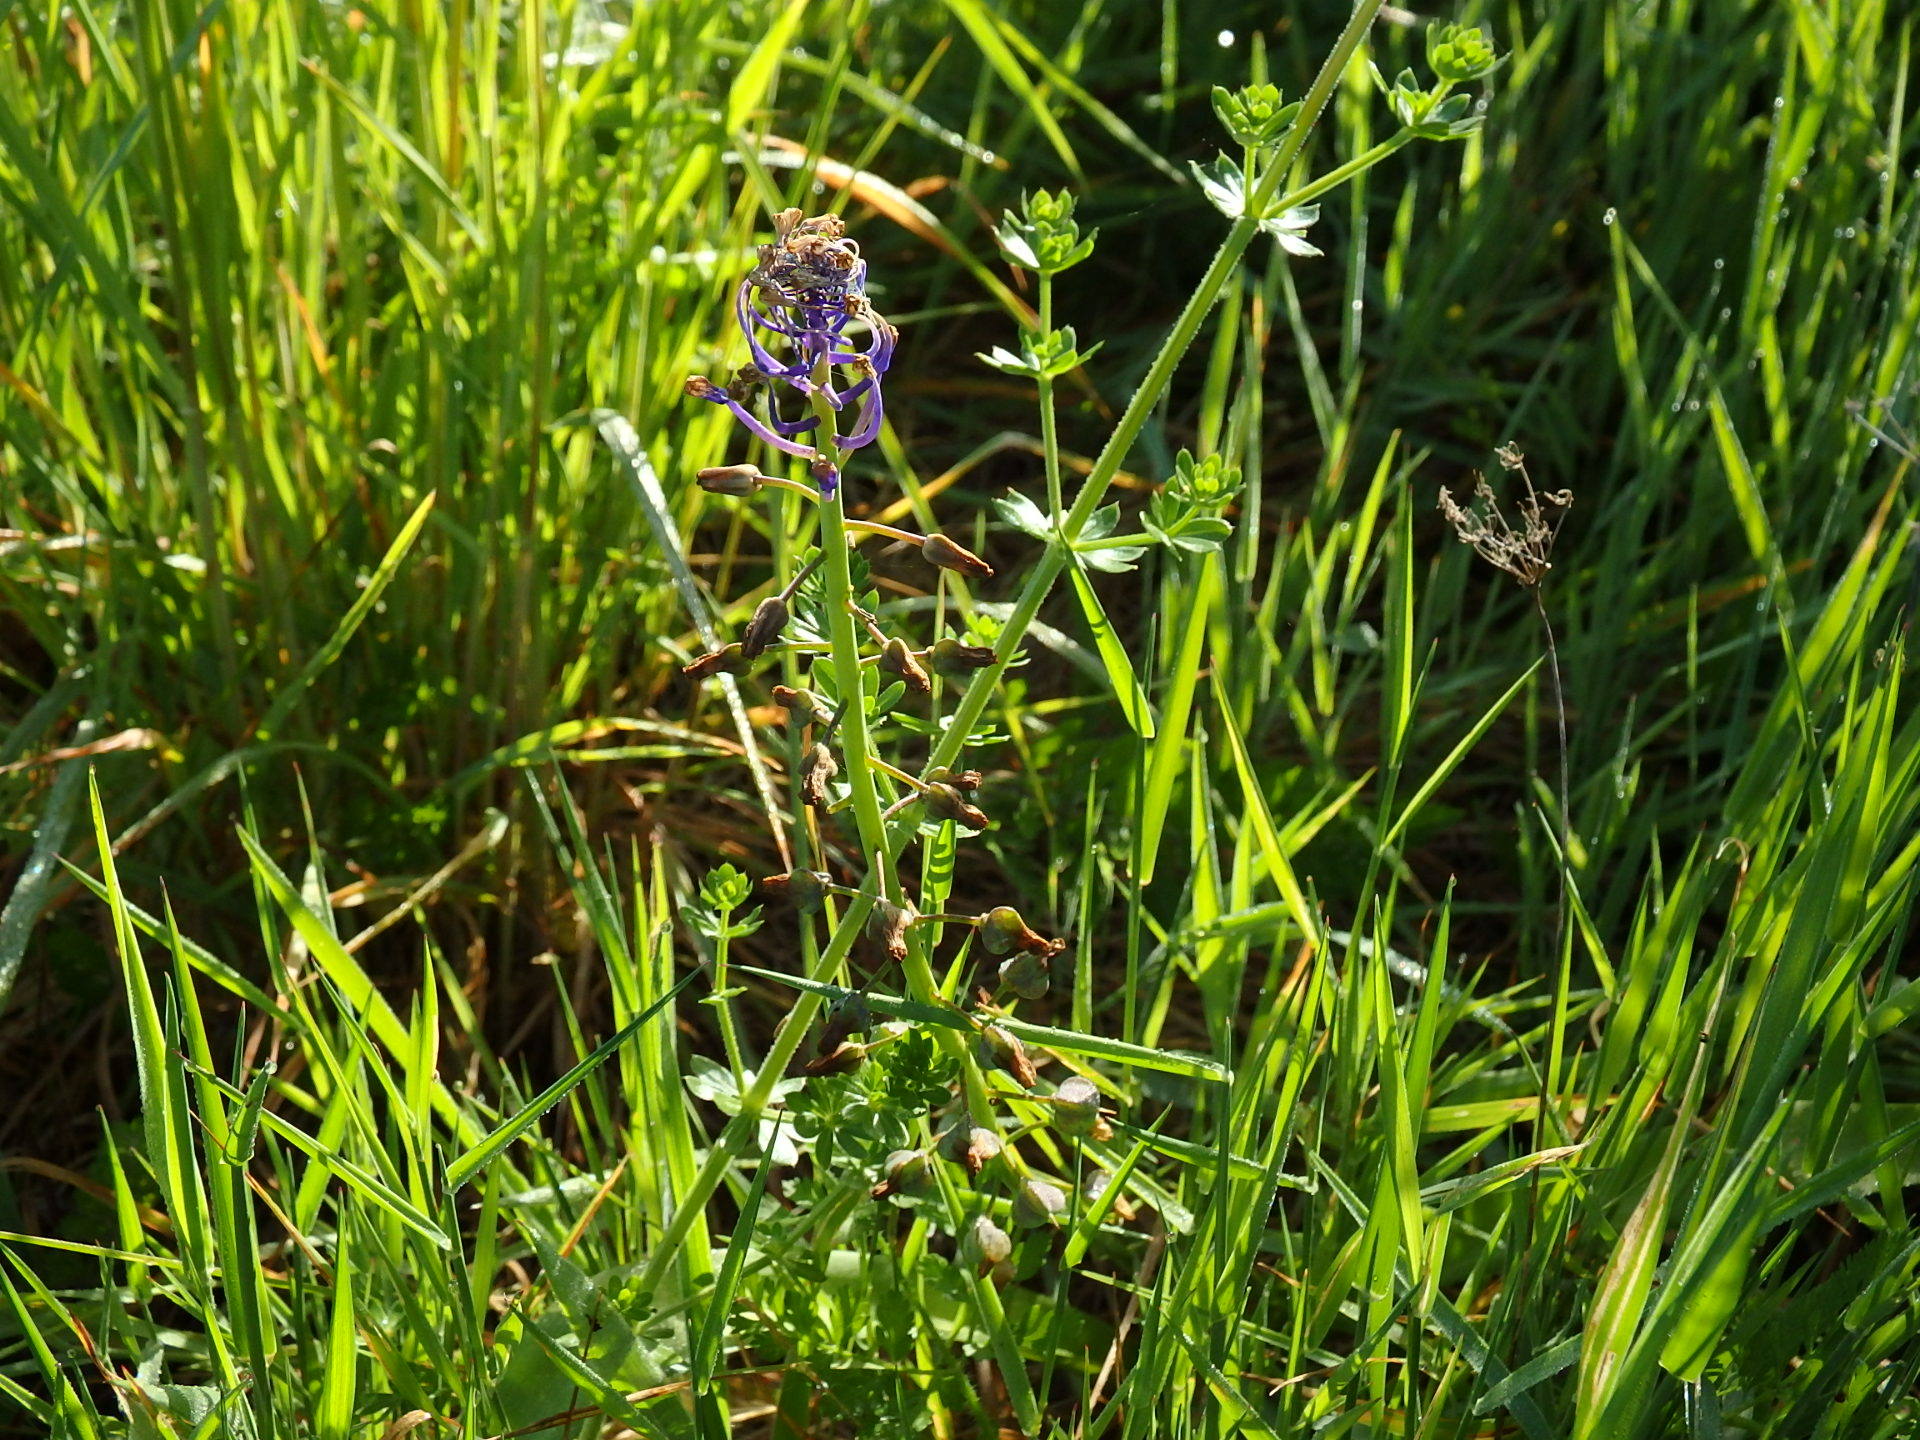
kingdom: Plantae
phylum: Tracheophyta
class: Liliopsida
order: Asparagales
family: Asparagaceae
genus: Muscari
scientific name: Muscari comosum
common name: Tassel hyacinth
